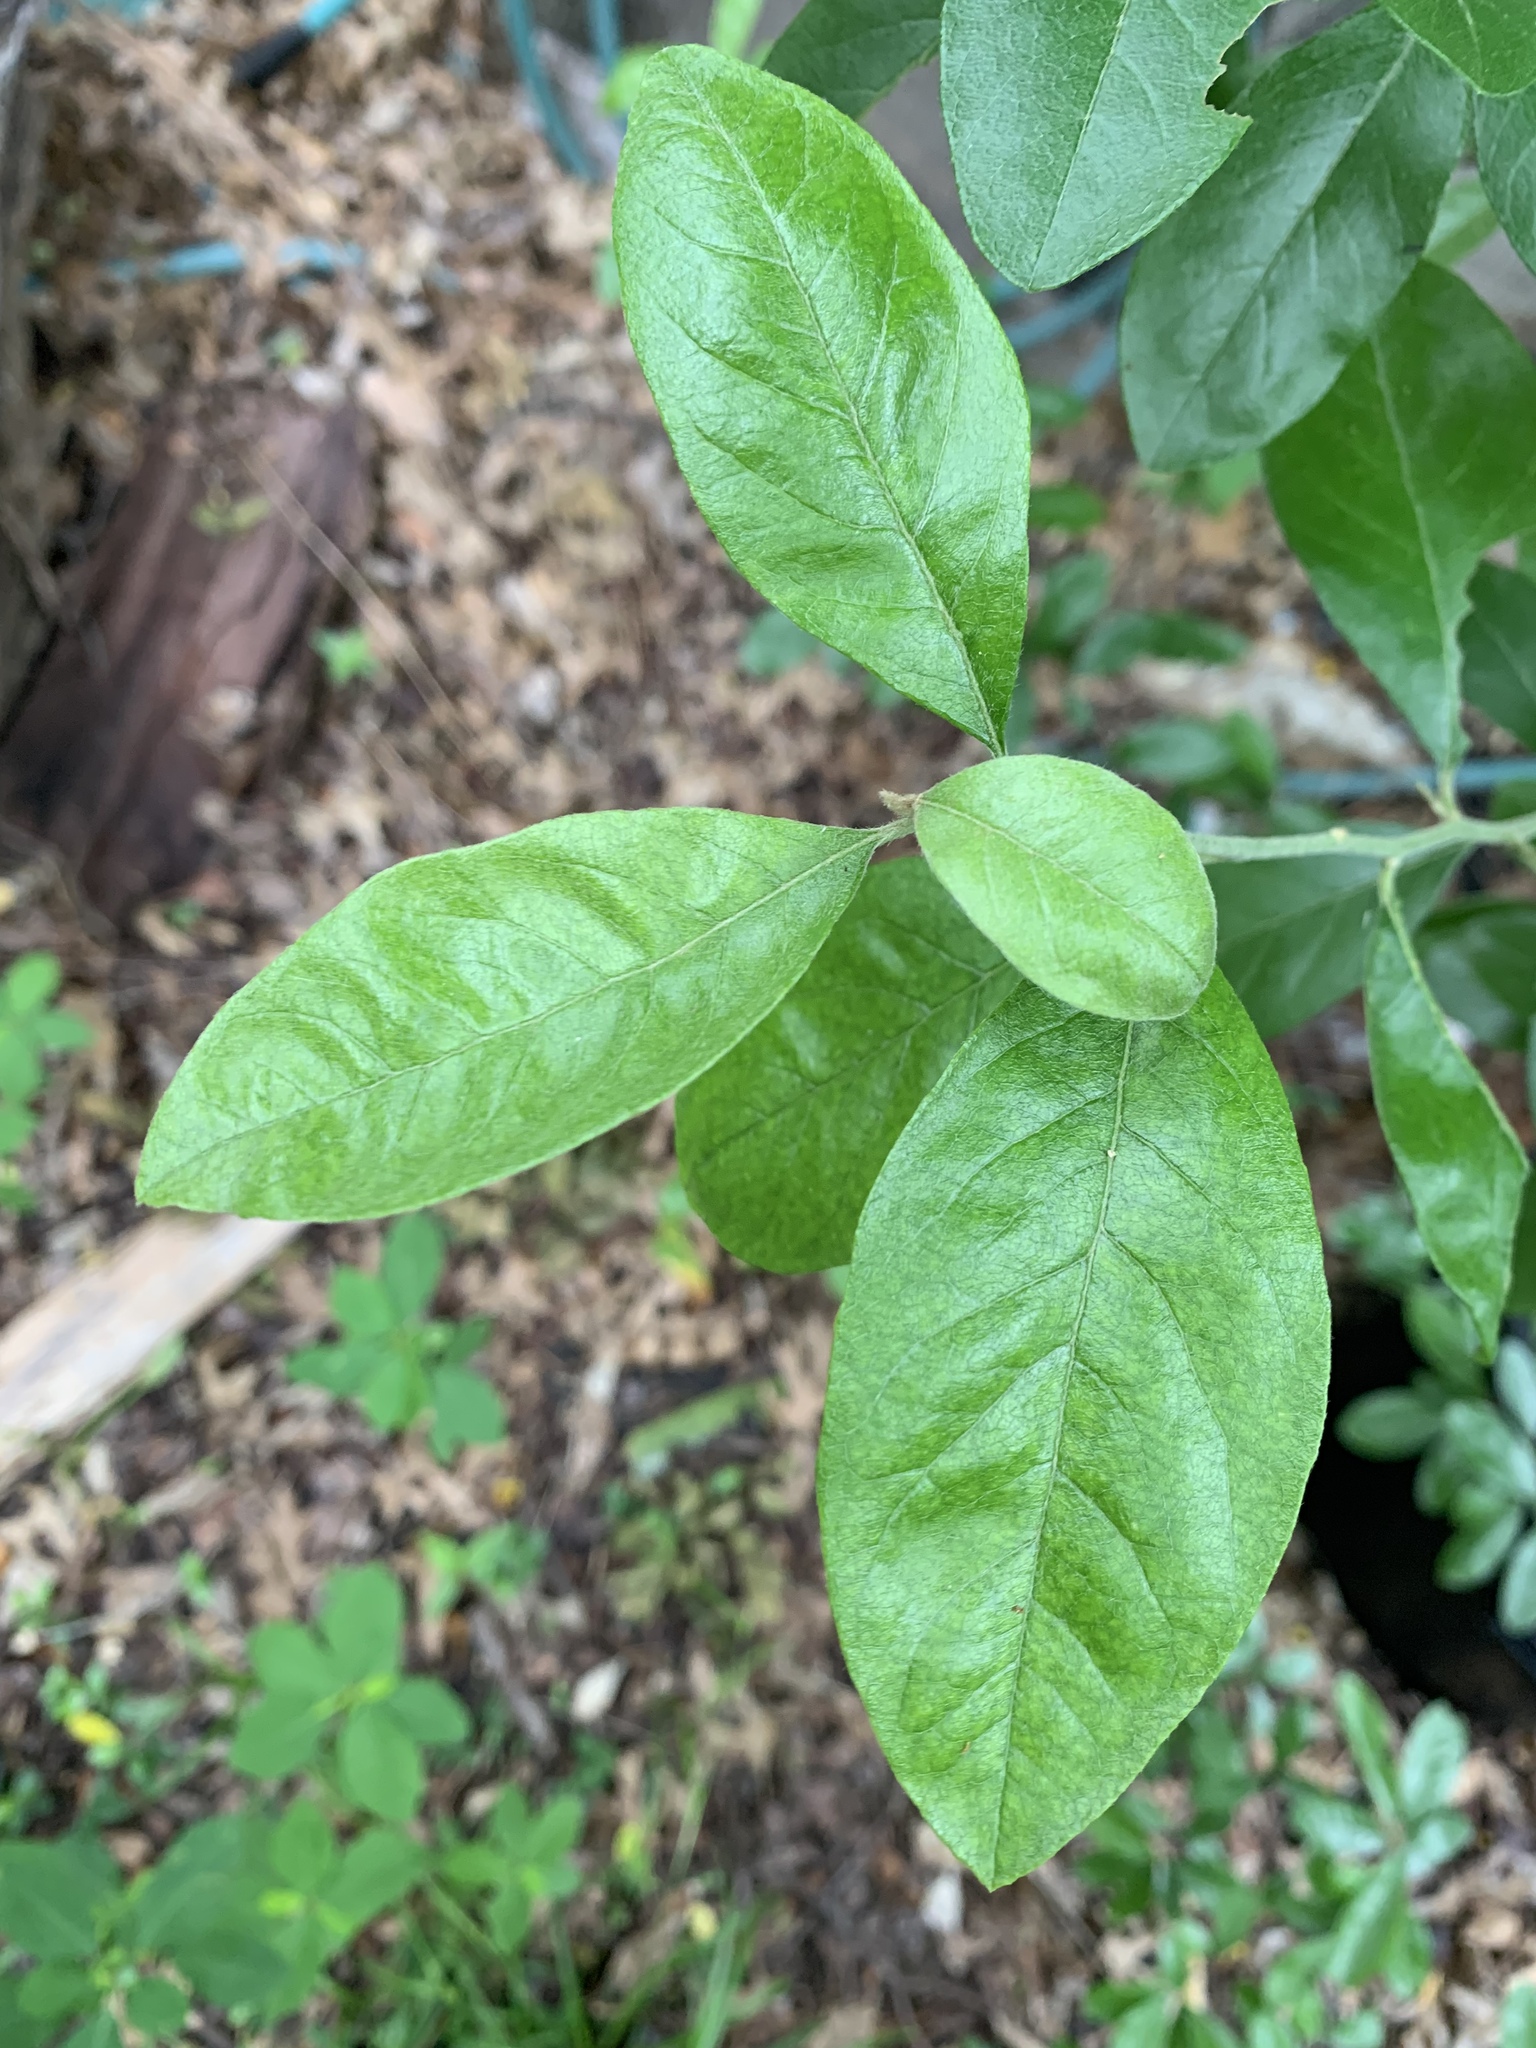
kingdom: Plantae
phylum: Tracheophyta
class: Magnoliopsida
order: Ericales
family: Sapotaceae
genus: Sideroxylon
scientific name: Sideroxylon lanuginosum
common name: Chittamwood
